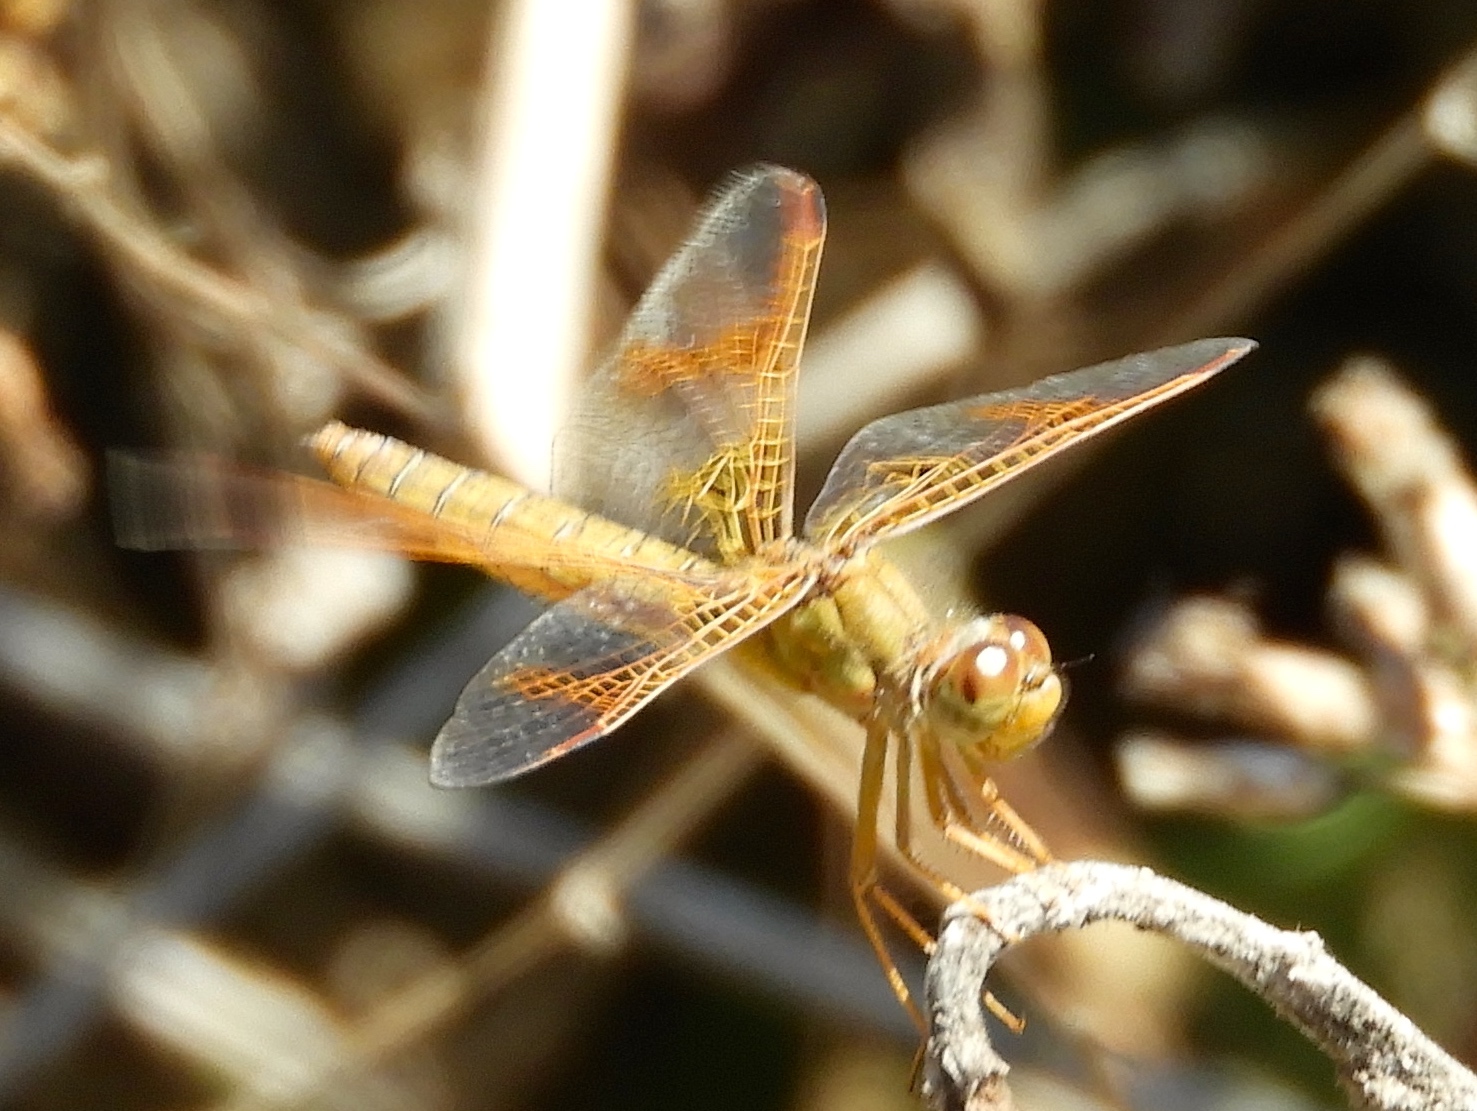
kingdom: Animalia
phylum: Arthropoda
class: Insecta
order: Odonata
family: Libellulidae
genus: Perithemis
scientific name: Perithemis intensa
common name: Mexican amberwing
